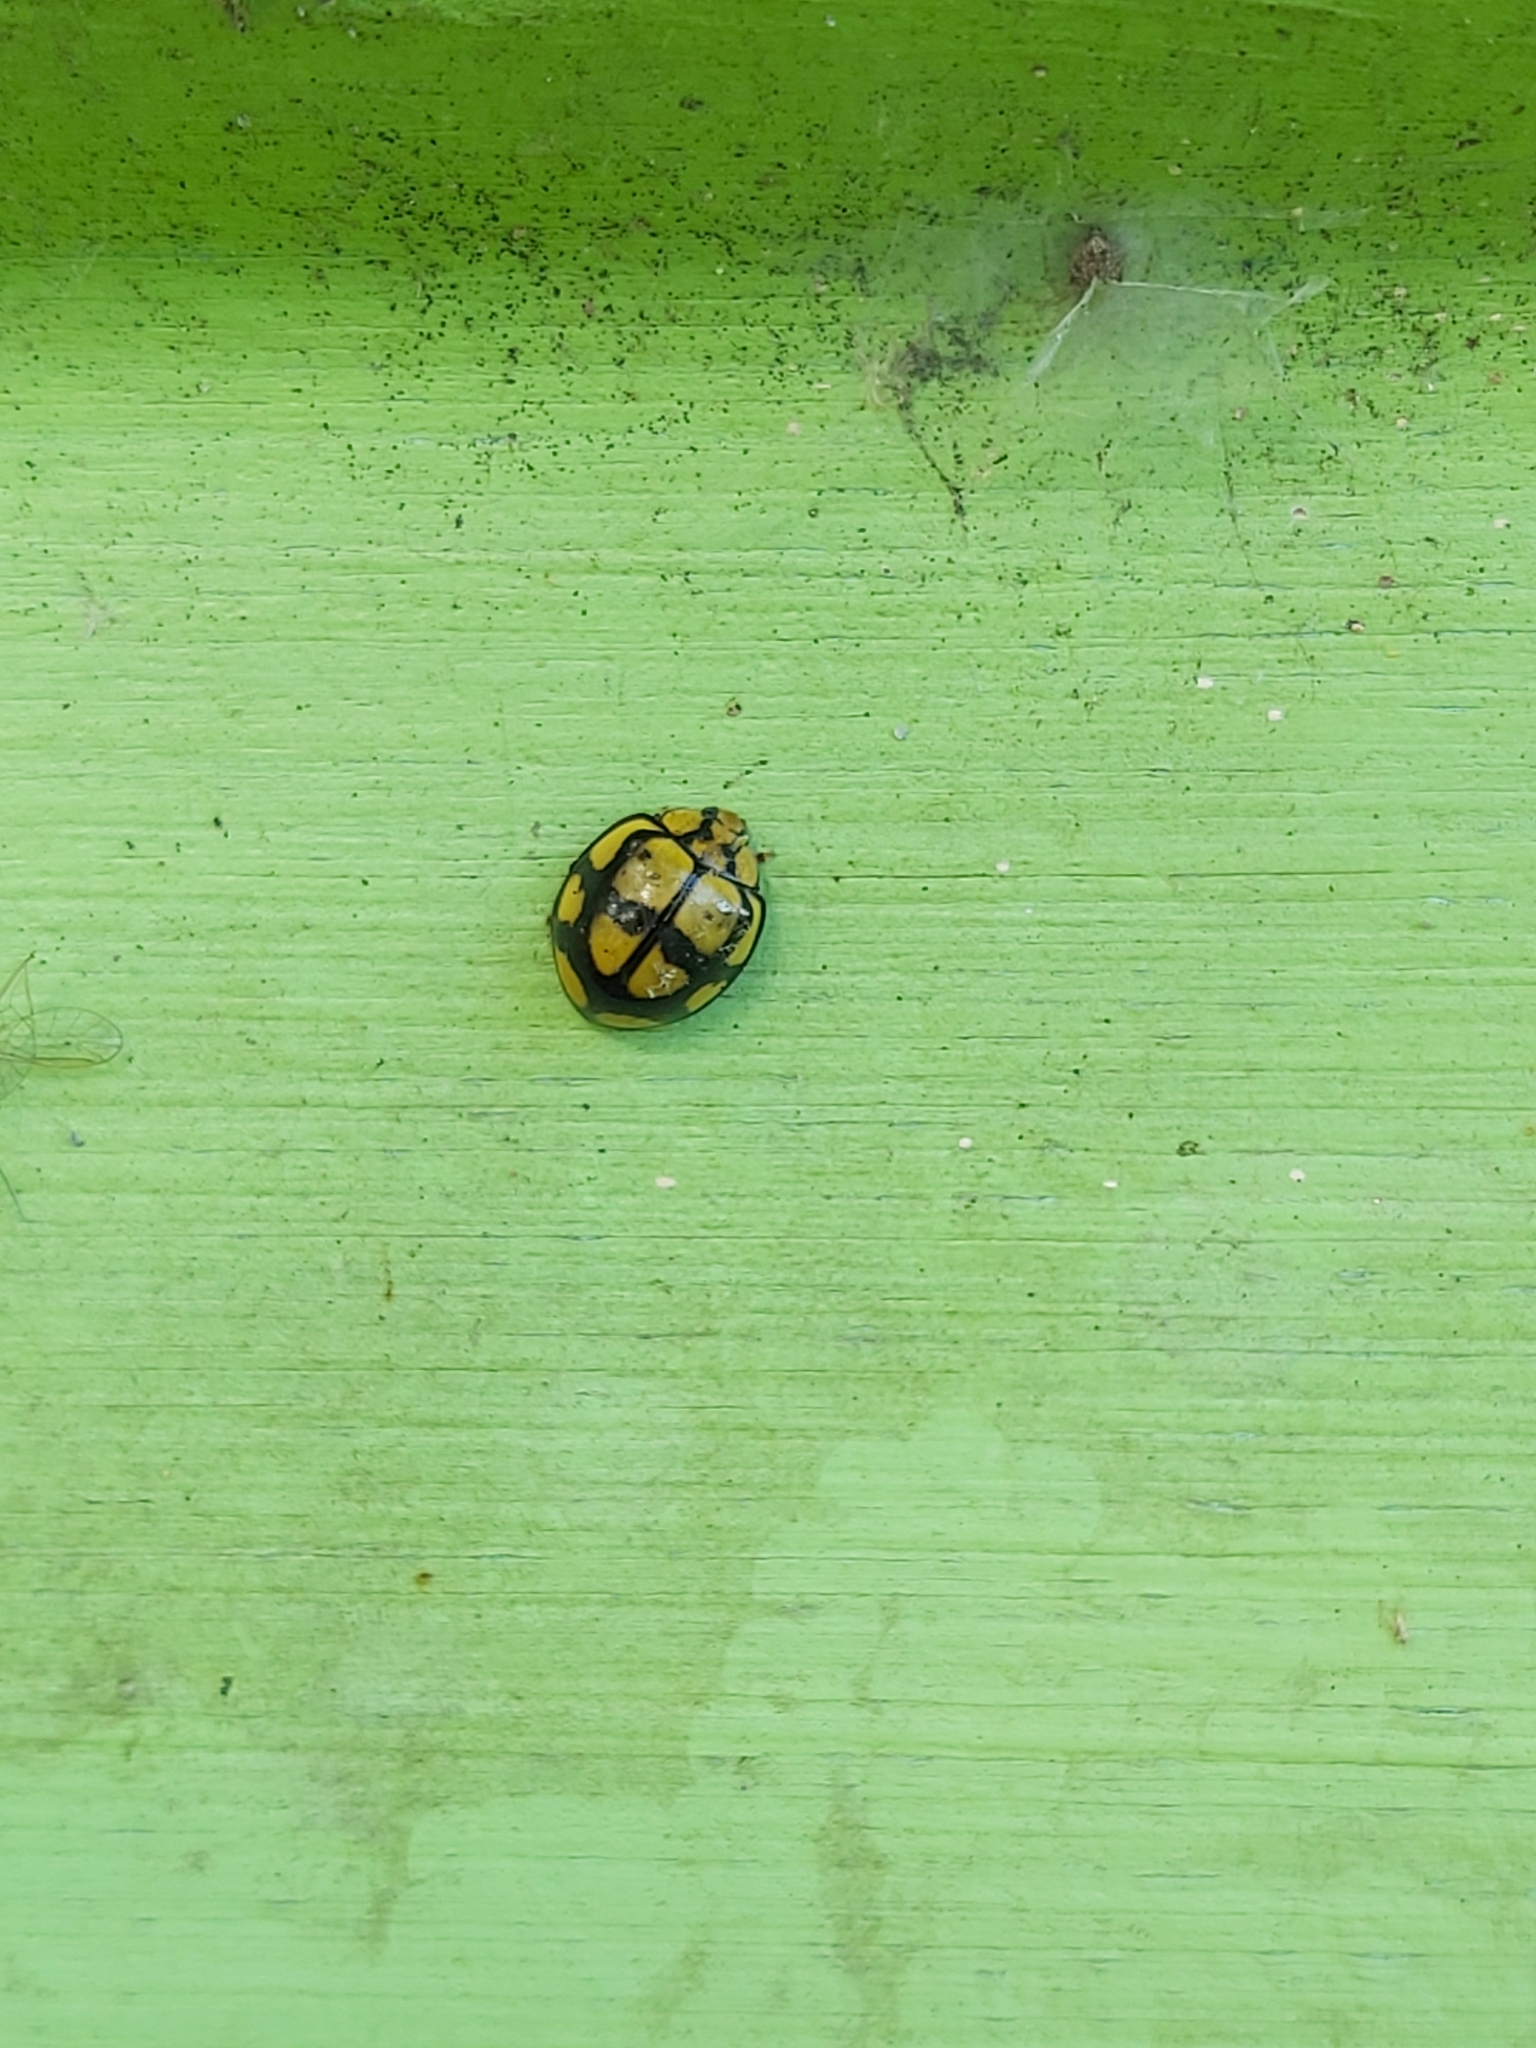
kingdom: Animalia
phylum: Arthropoda
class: Insecta
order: Coleoptera
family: Coccinellidae
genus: Harmonia
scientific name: Harmonia
